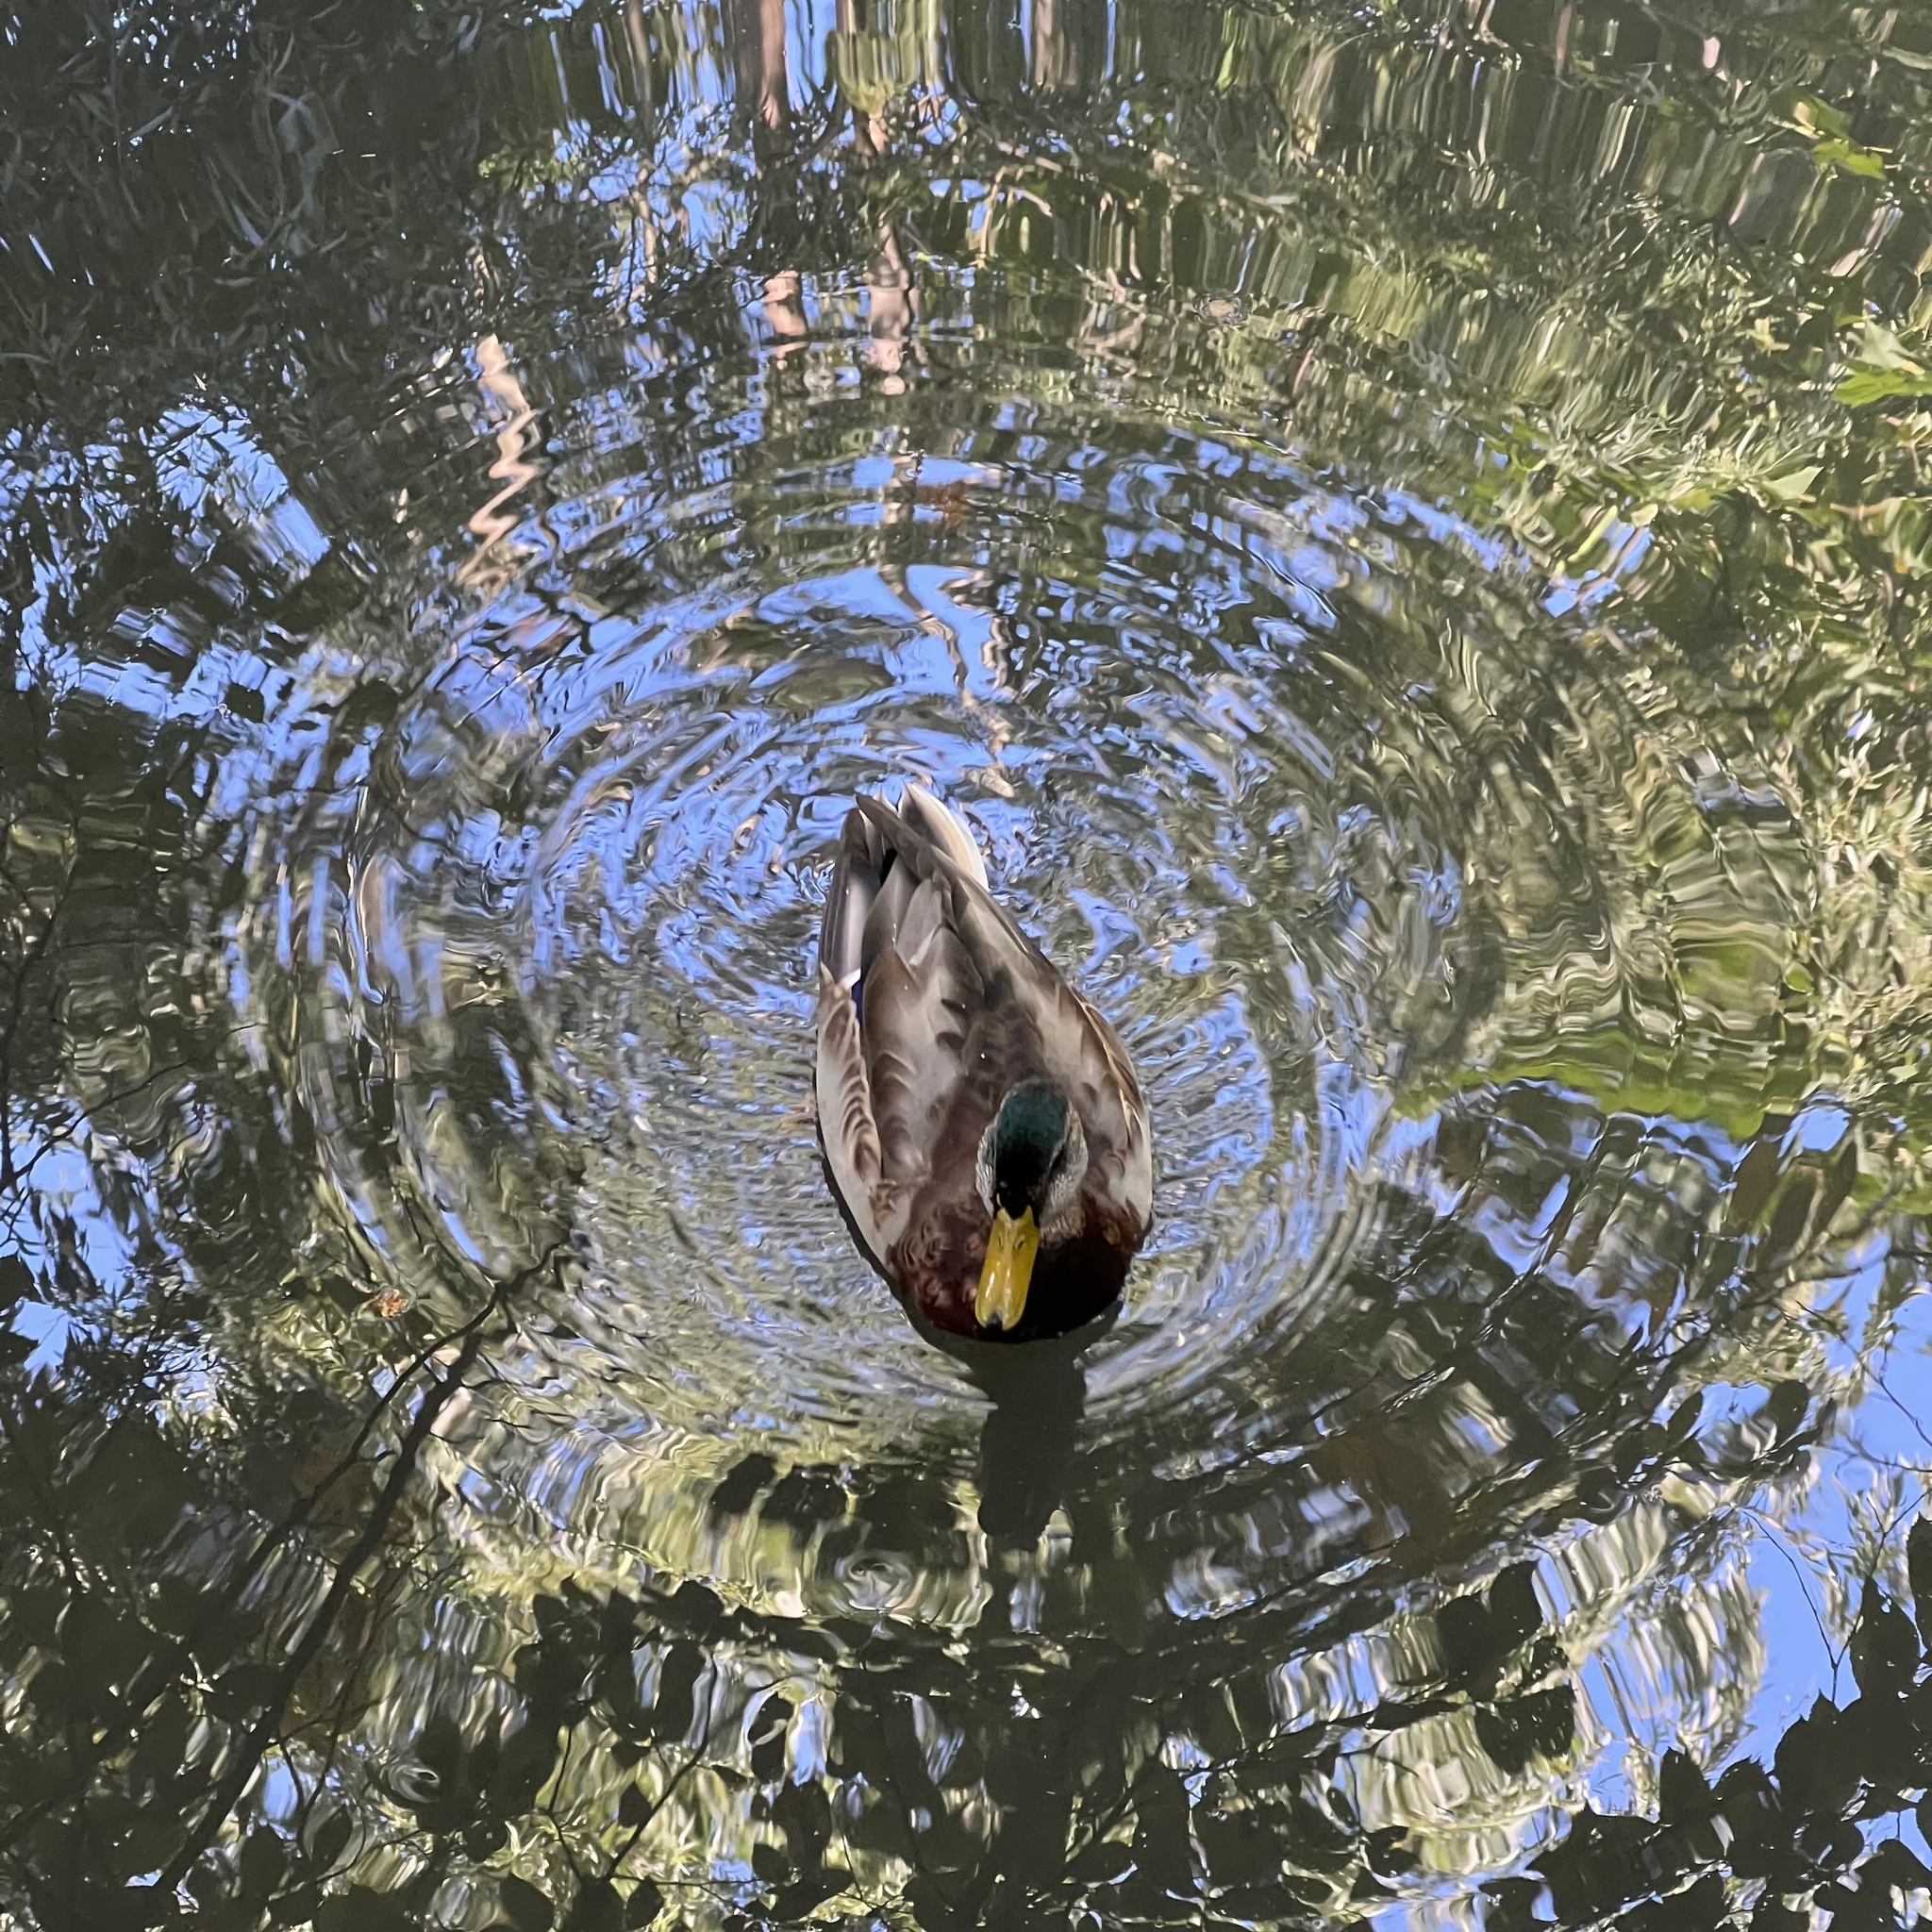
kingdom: Animalia
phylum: Chordata
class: Aves
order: Anseriformes
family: Anatidae
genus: Anas
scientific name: Anas platyrhynchos
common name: Mallard
